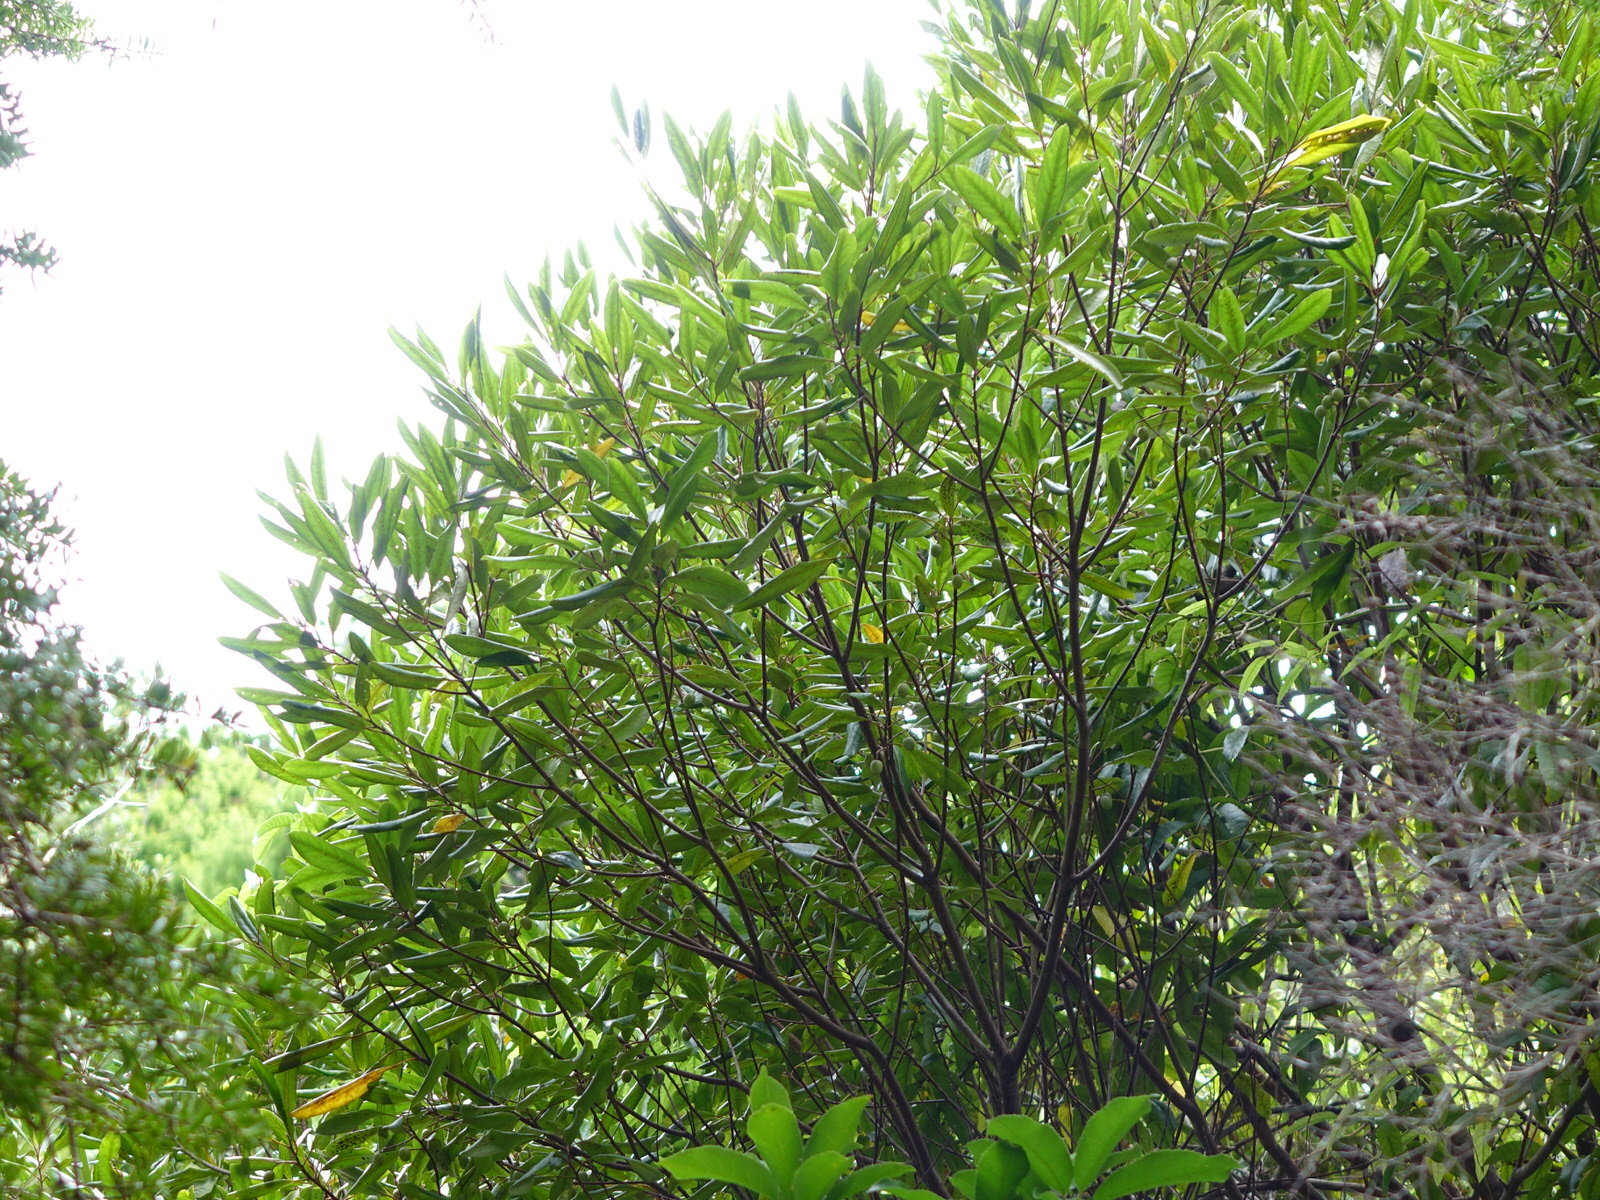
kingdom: Plantae
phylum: Tracheophyta
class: Magnoliopsida
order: Oxalidales
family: Elaeocarpaceae
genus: Elaeocarpus
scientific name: Elaeocarpus dentatus
